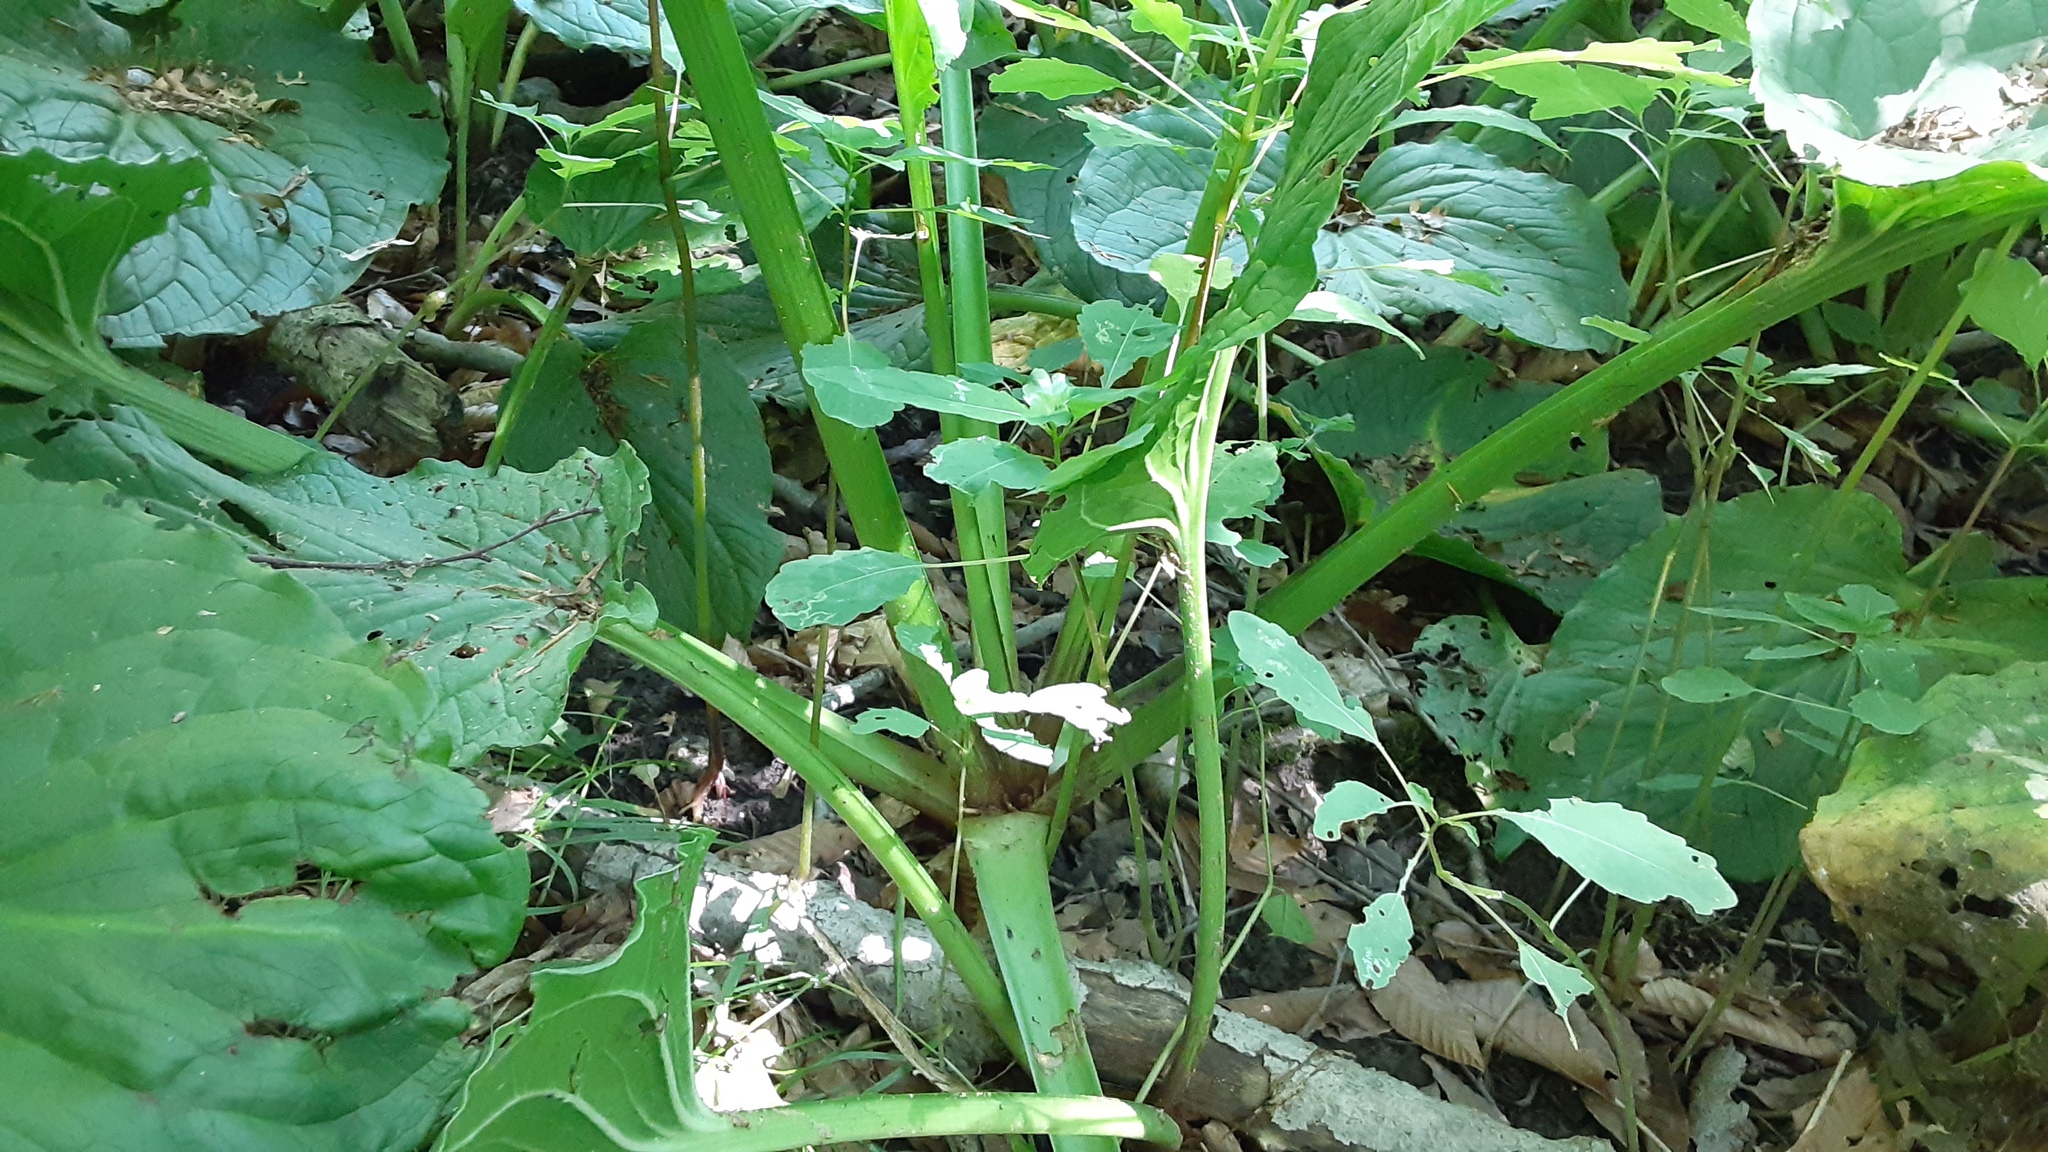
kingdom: Plantae
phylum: Tracheophyta
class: Liliopsida
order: Alismatales
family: Araceae
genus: Symplocarpus
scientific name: Symplocarpus foetidus
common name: Eastern skunk cabbage
